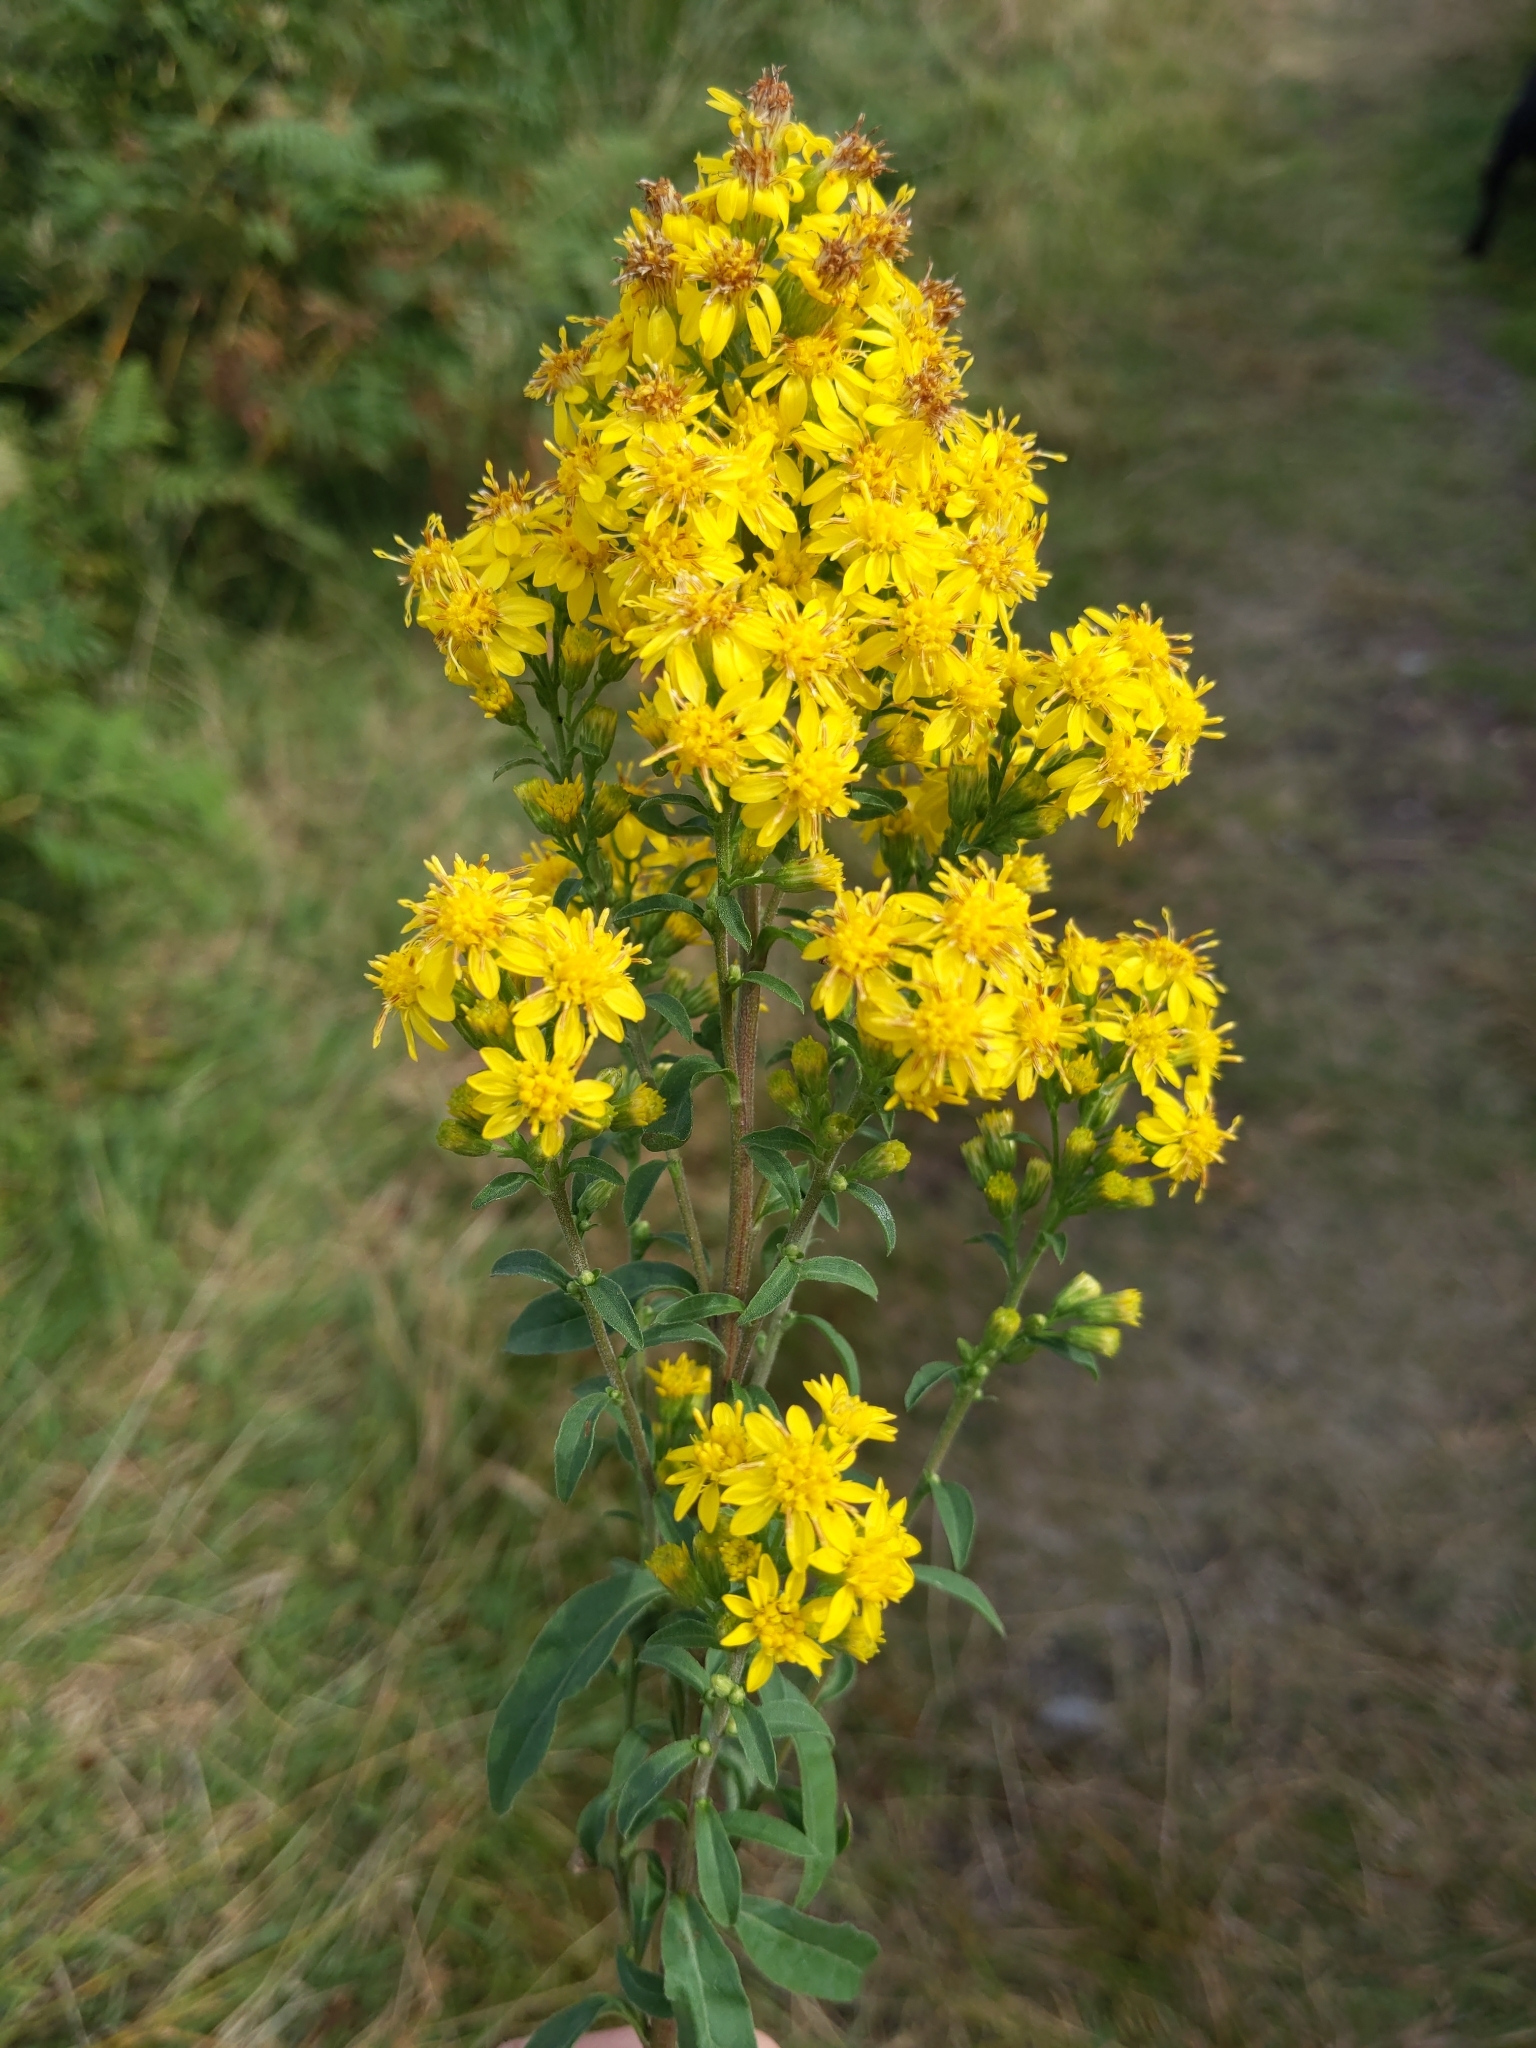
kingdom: Plantae
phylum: Tracheophyta
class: Magnoliopsida
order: Asterales
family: Asteraceae
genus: Solidago
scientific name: Solidago virgaurea
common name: Goldenrod
